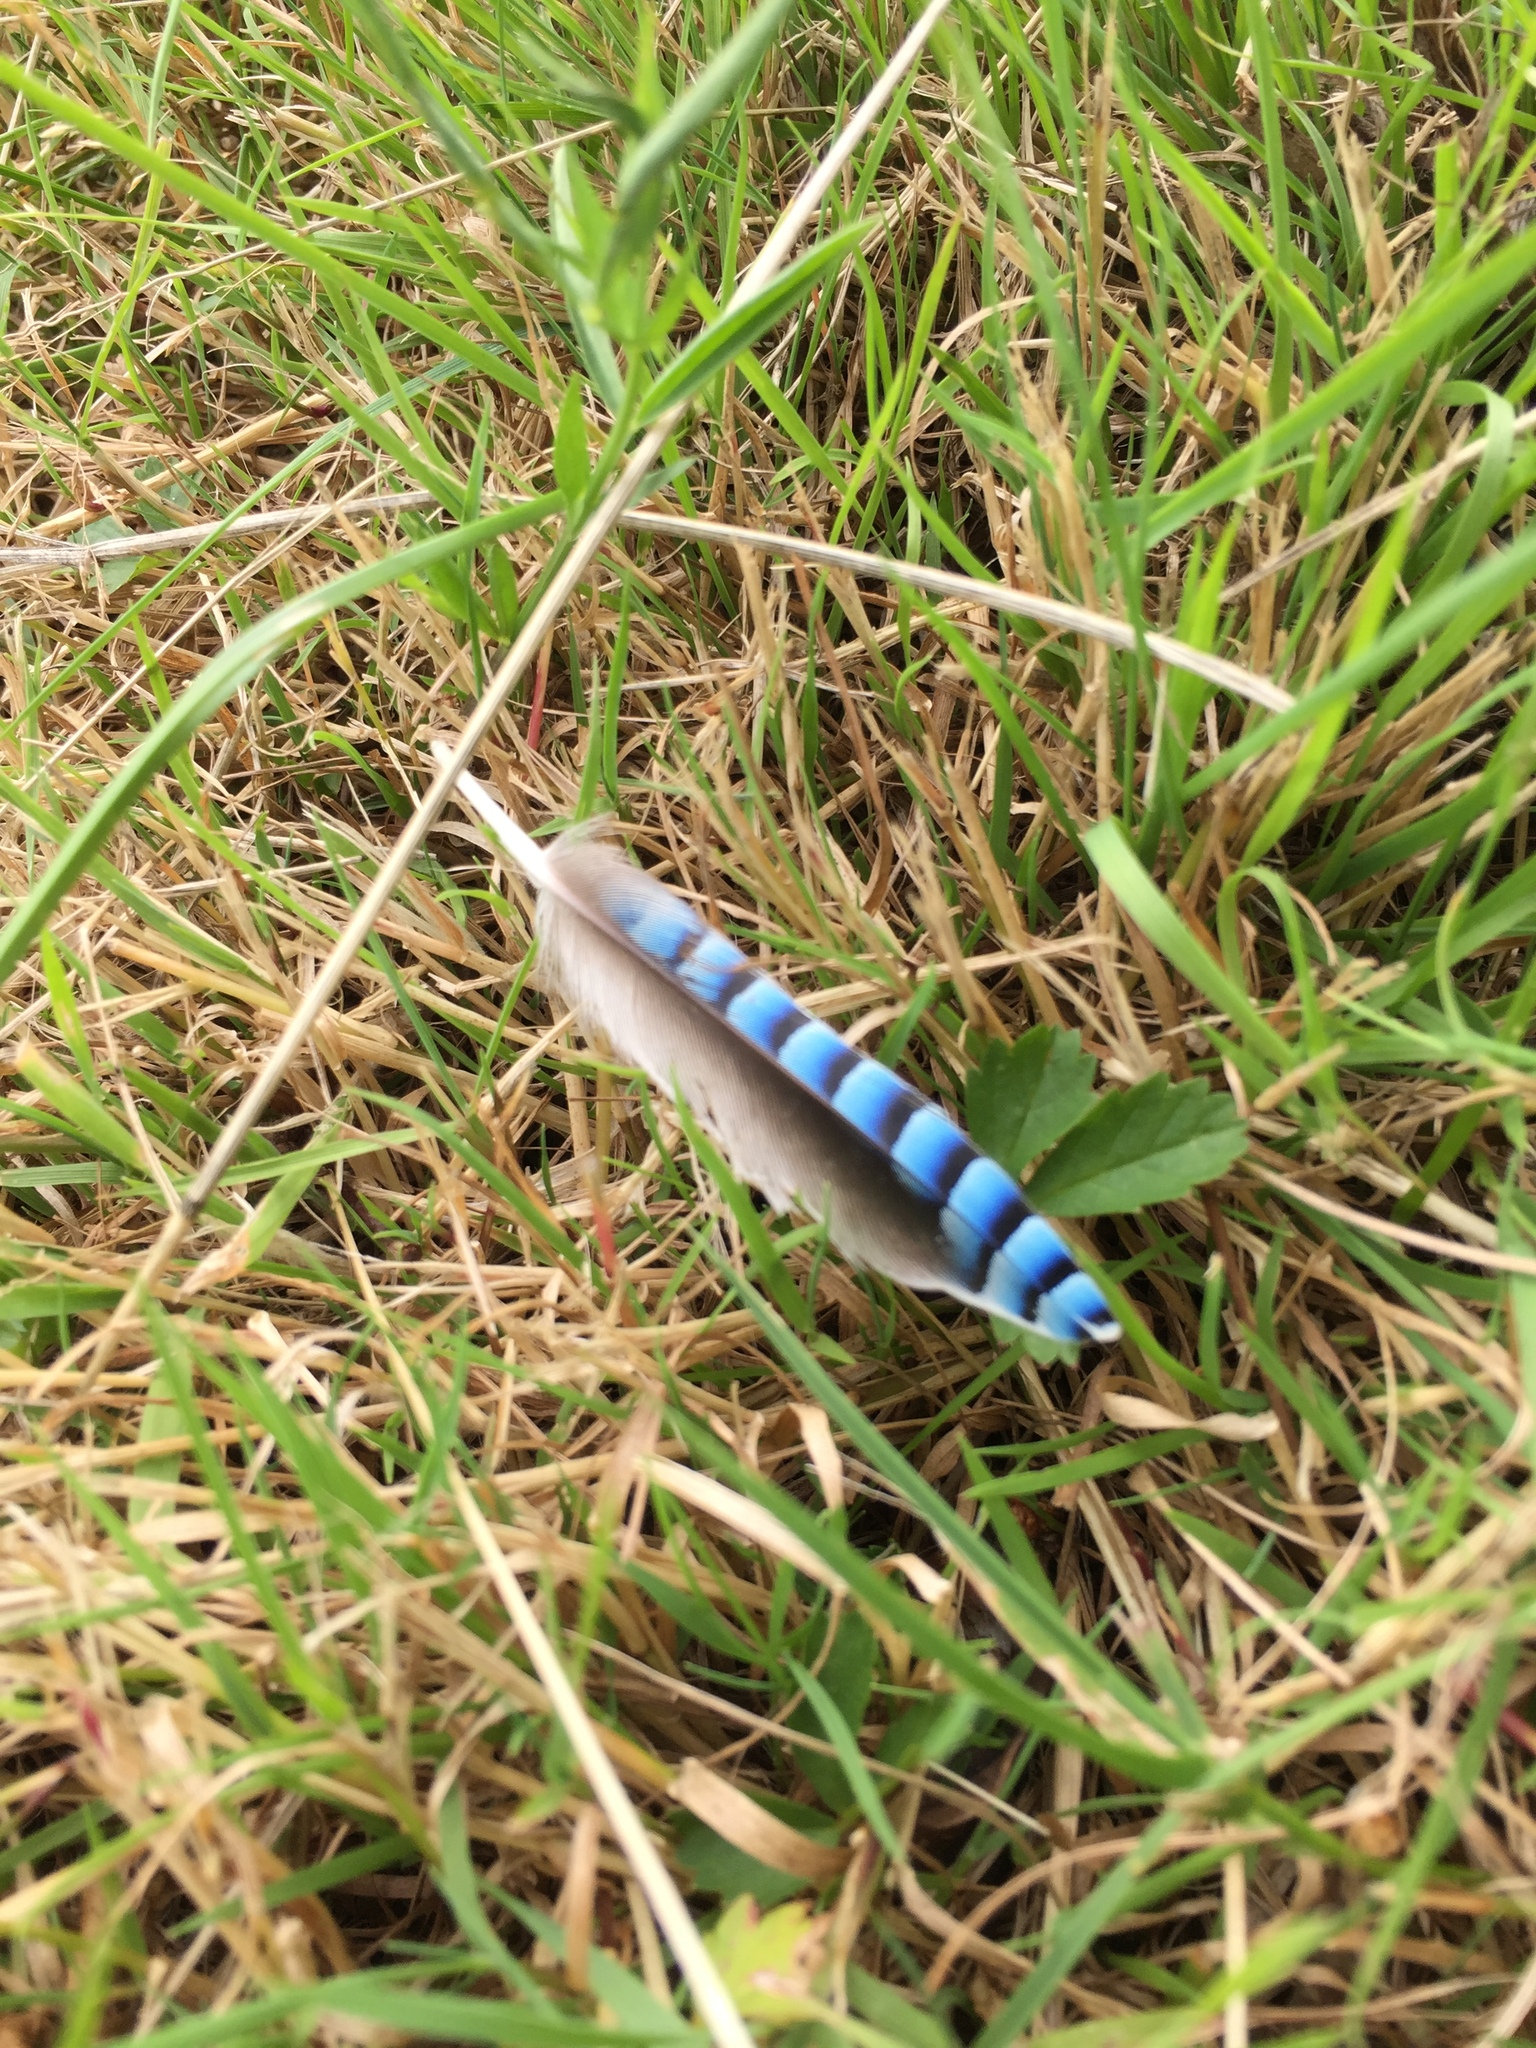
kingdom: Animalia
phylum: Chordata
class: Aves
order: Passeriformes
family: Corvidae
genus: Garrulus
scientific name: Garrulus glandarius
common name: Eurasian jay
